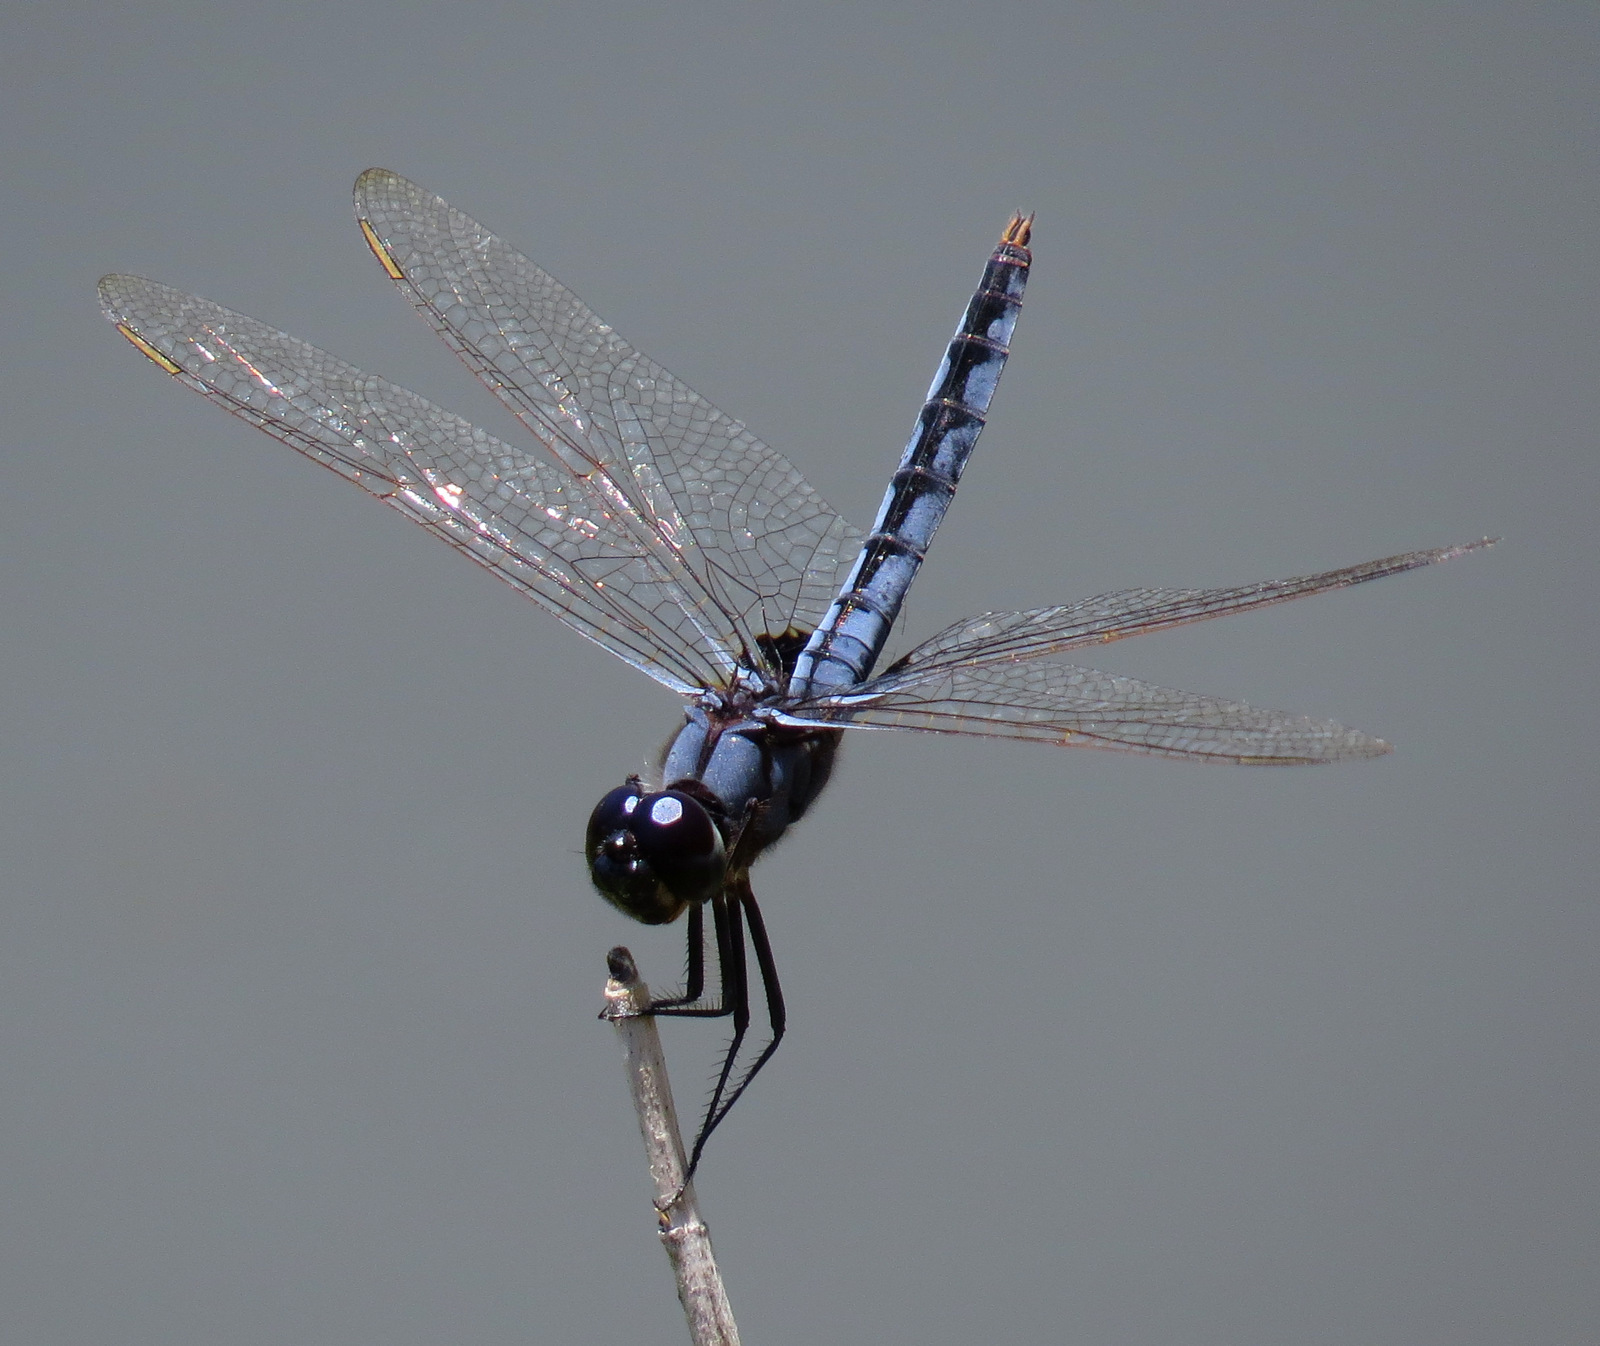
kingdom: Animalia
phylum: Arthropoda
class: Insecta
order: Odonata
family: Libellulidae
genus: Urothemis
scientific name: Urothemis edwardsii
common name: Blue basker
